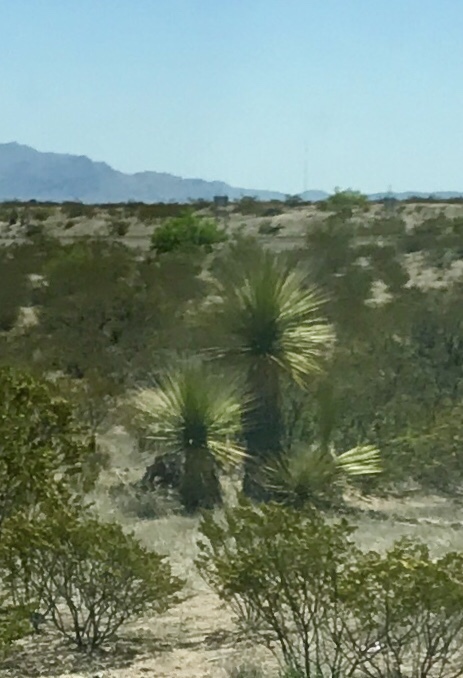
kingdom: Plantae
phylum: Tracheophyta
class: Liliopsida
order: Asparagales
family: Asparagaceae
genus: Yucca
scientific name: Yucca elata
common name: Palmella
